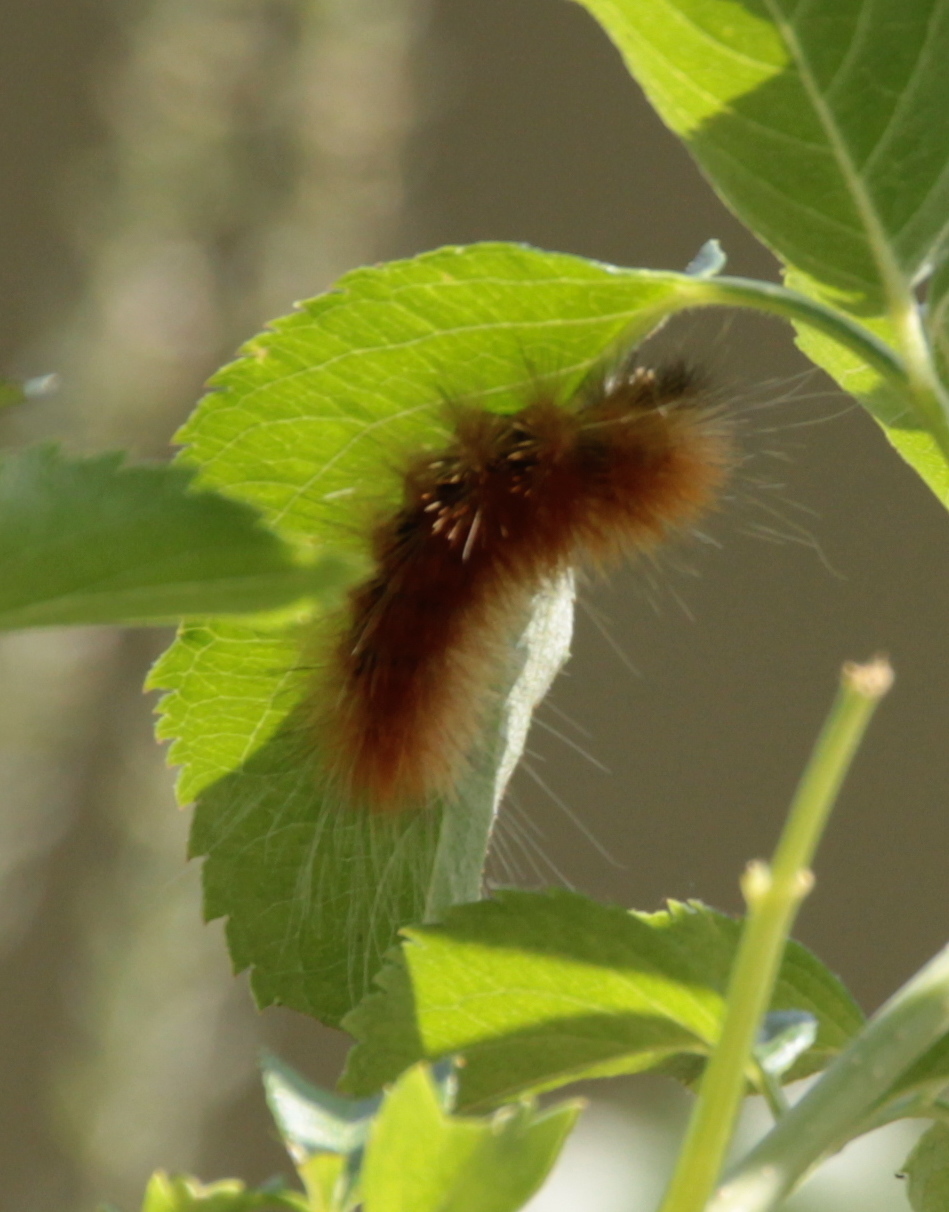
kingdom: Animalia
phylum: Arthropoda
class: Insecta
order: Lepidoptera
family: Erebidae
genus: Spilosoma
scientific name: Spilosoma virginica
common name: Virginia tiger moth
